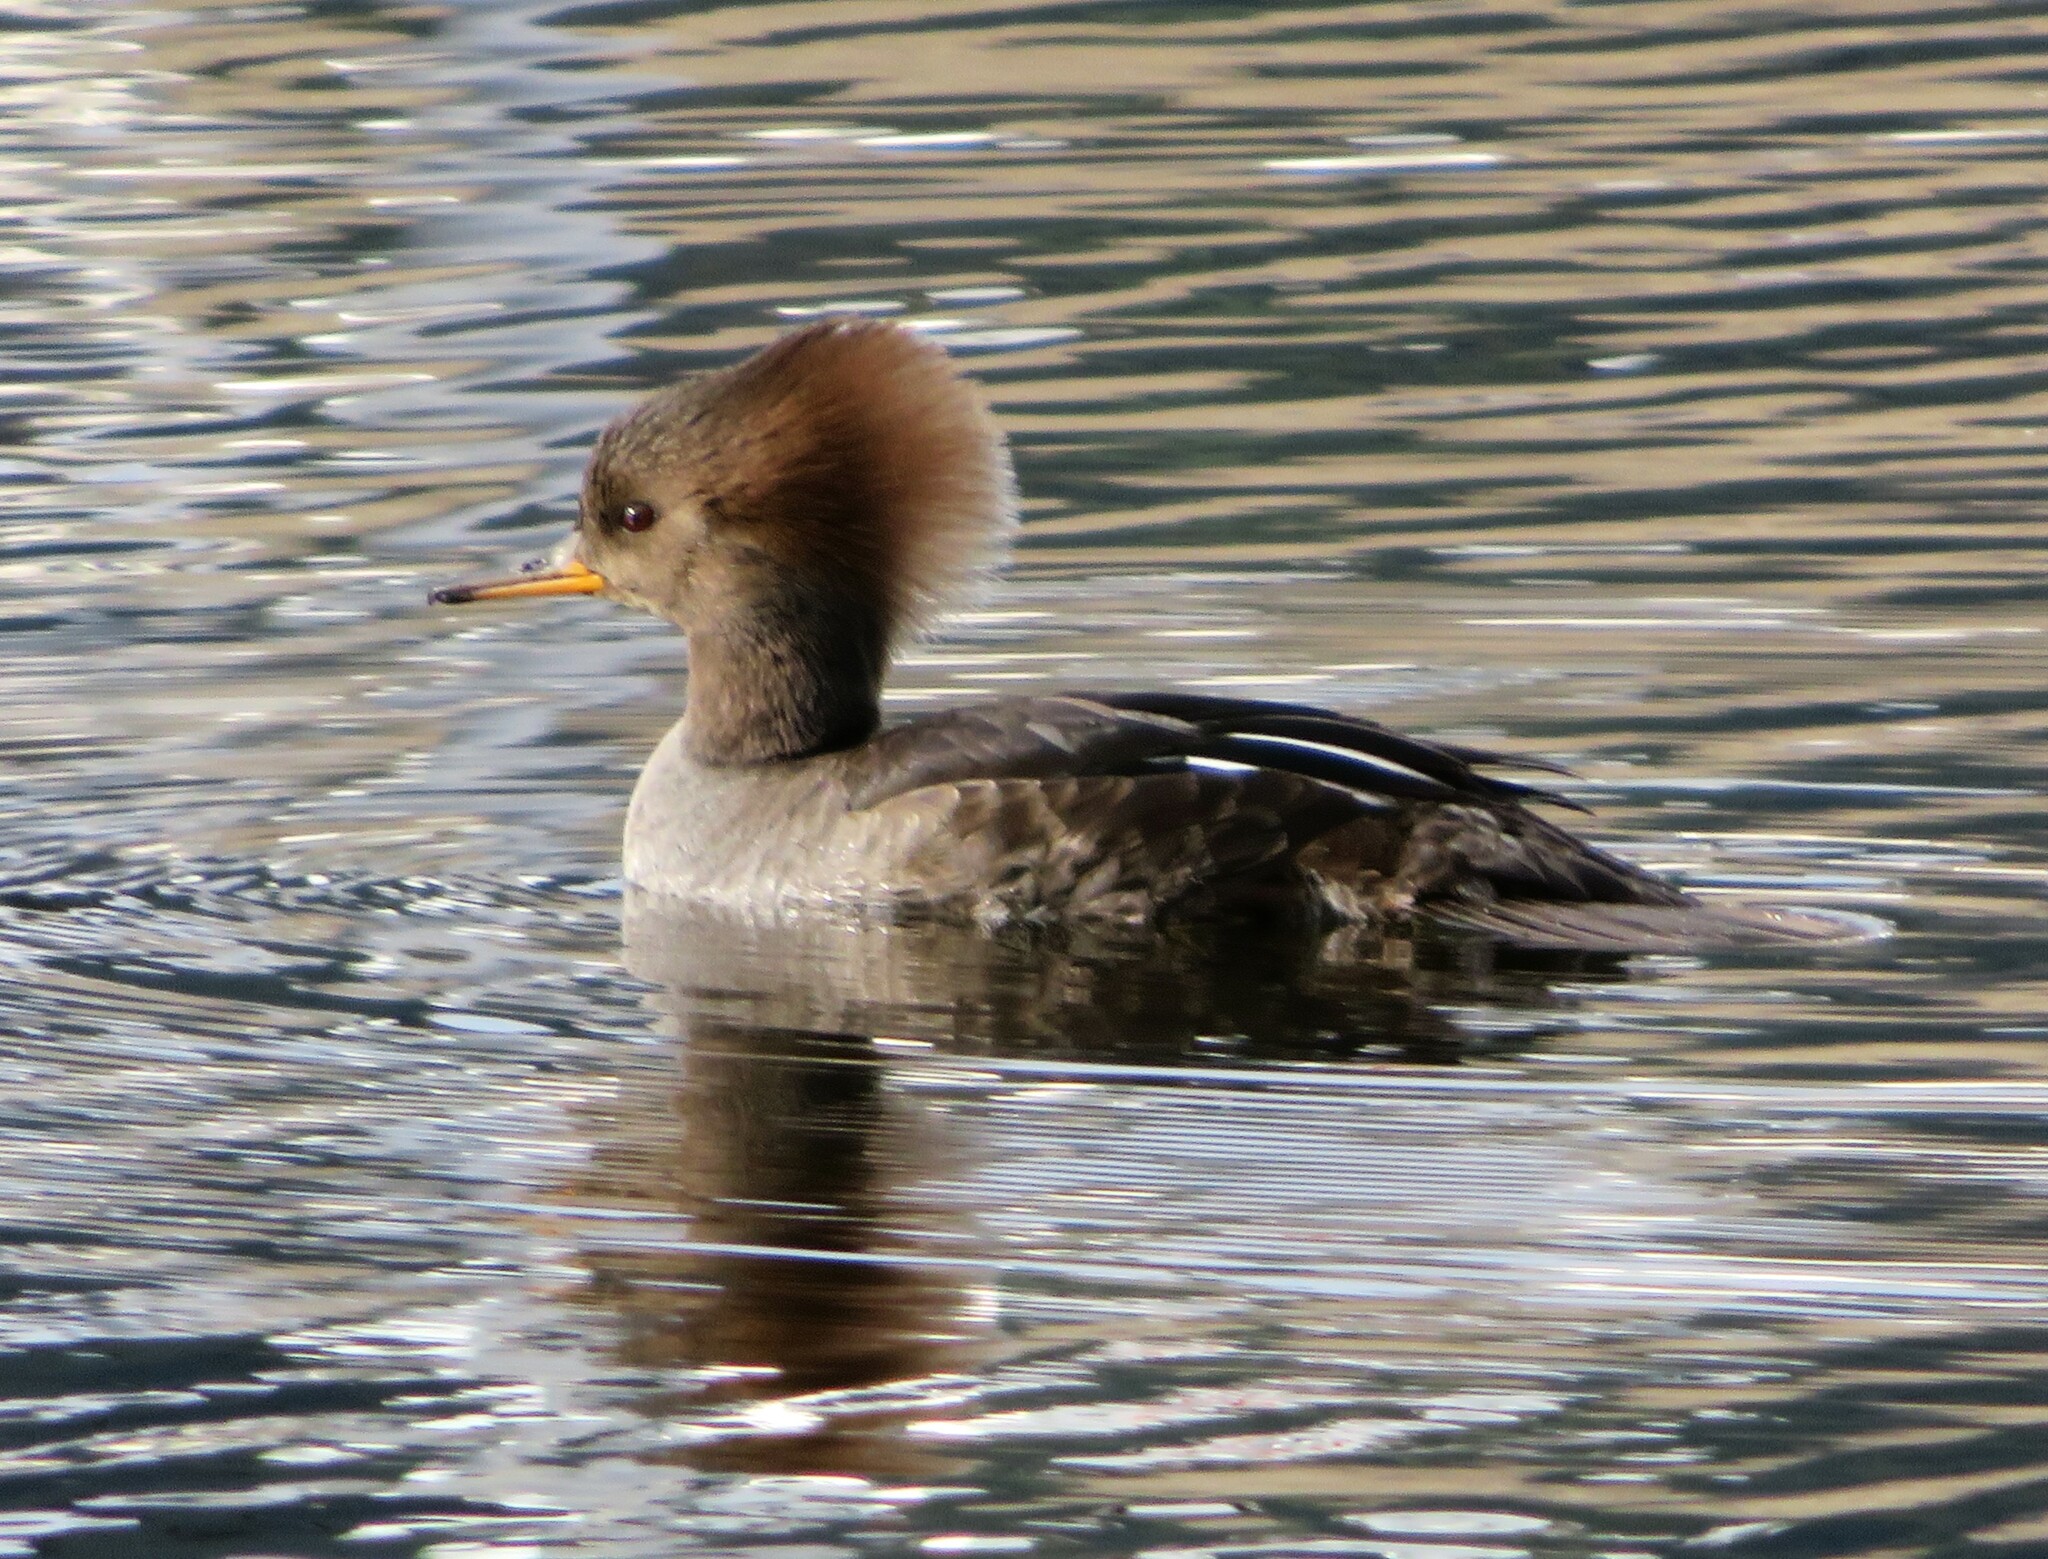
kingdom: Animalia
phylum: Chordata
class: Aves
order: Anseriformes
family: Anatidae
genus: Lophodytes
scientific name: Lophodytes cucullatus
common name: Hooded merganser
